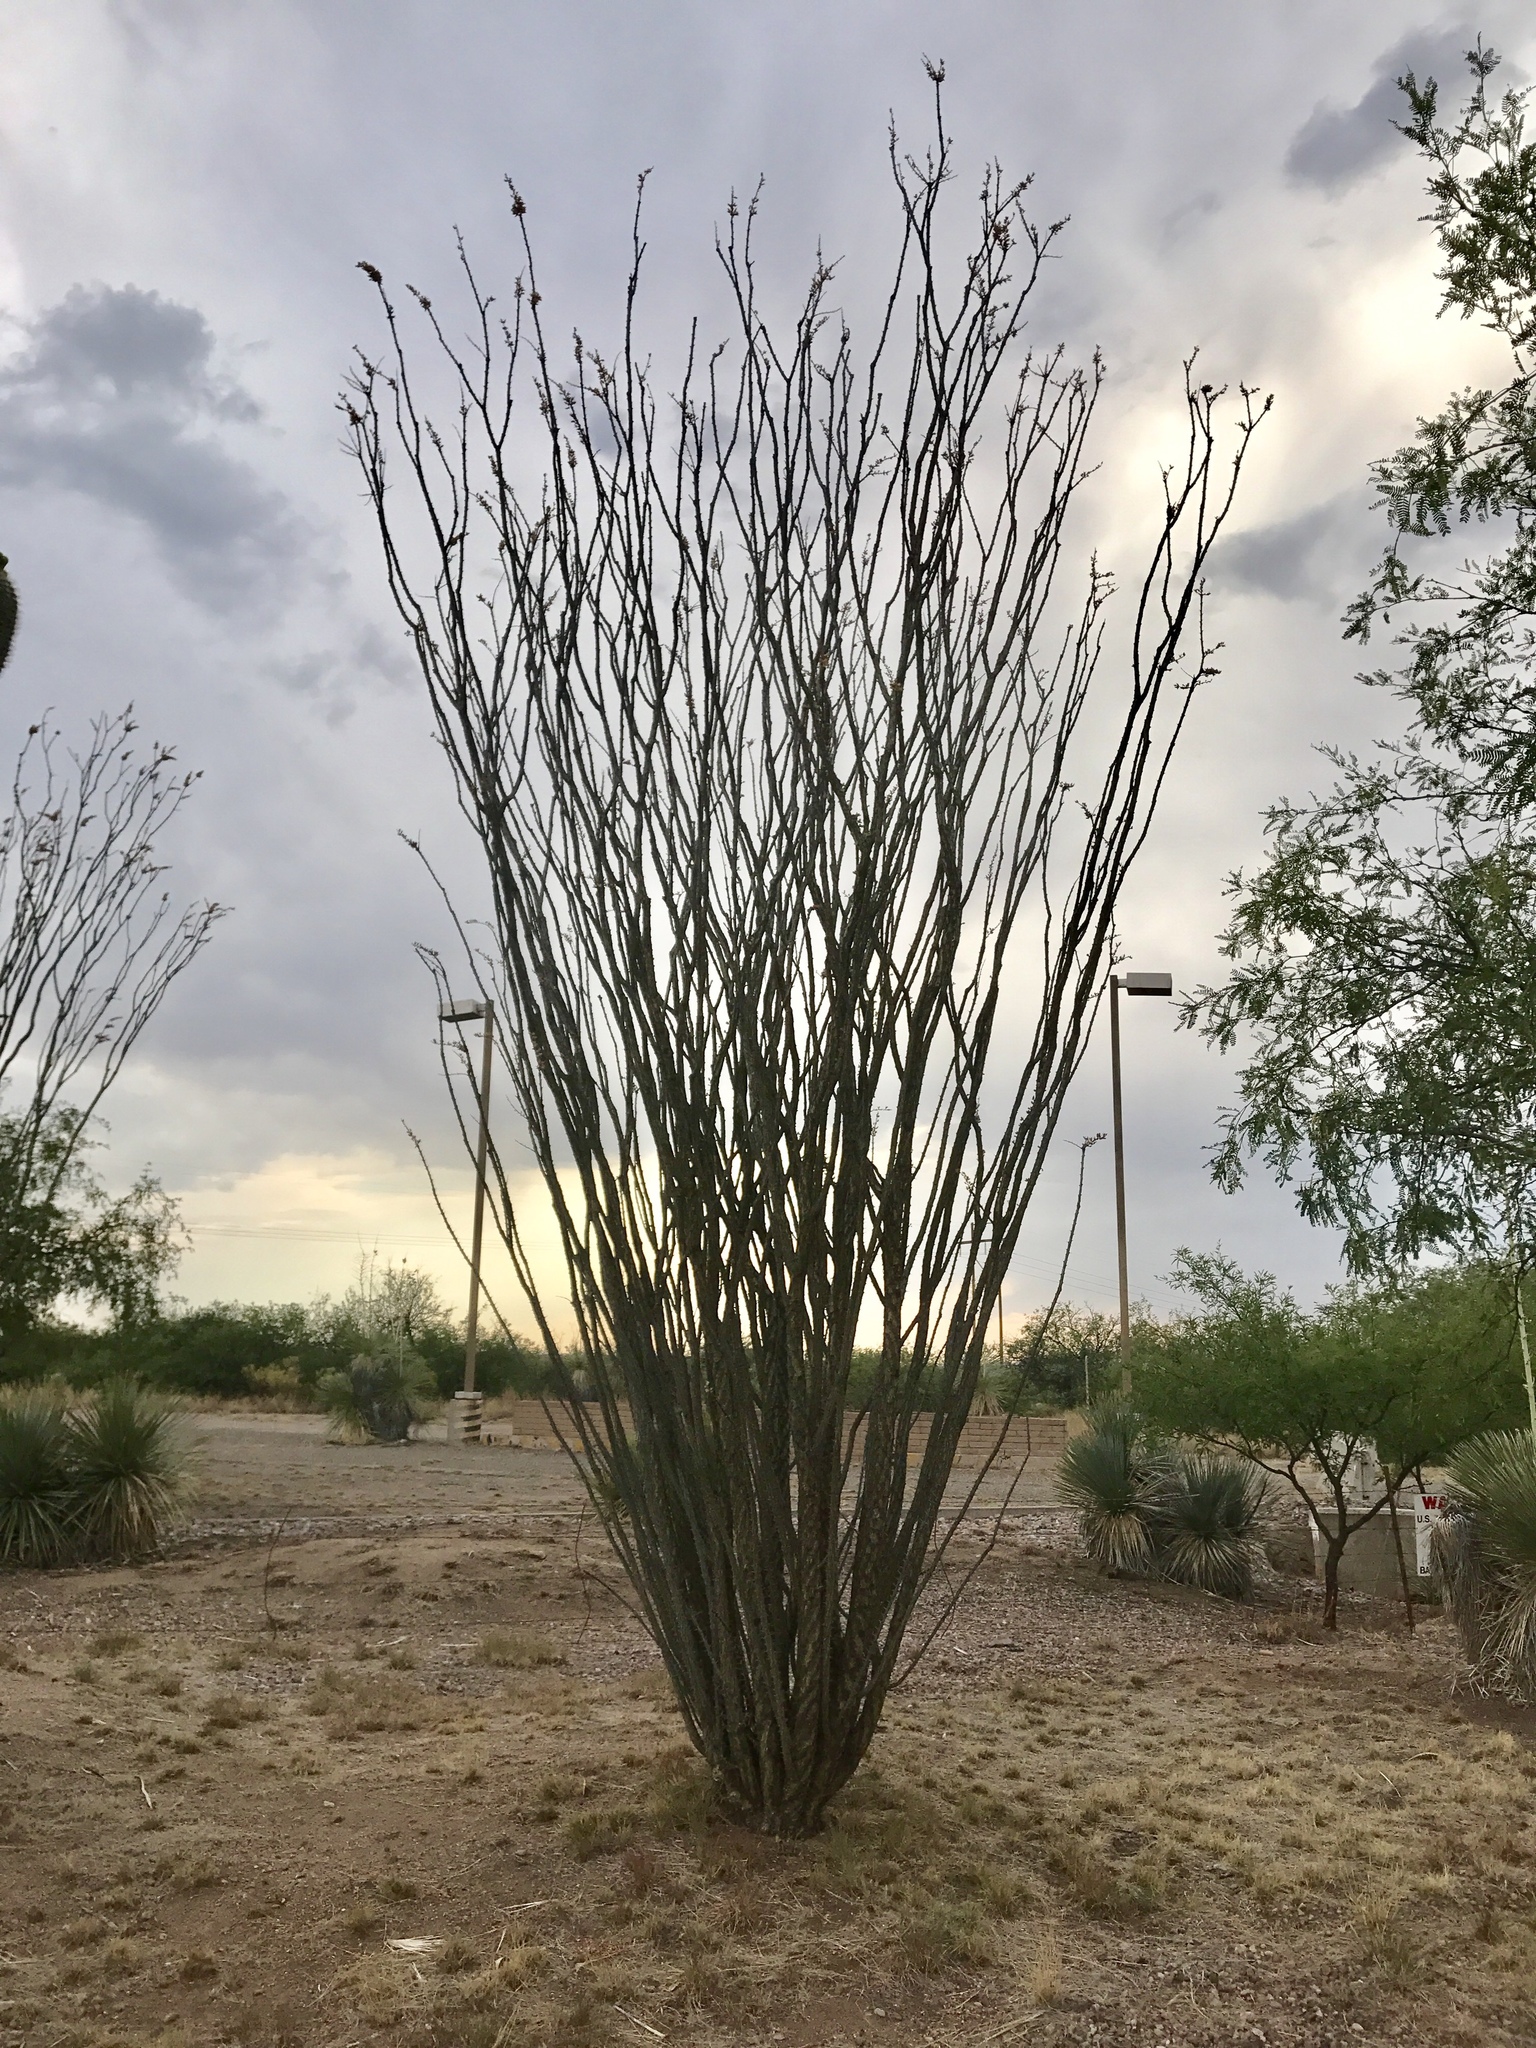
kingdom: Plantae
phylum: Tracheophyta
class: Magnoliopsida
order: Ericales
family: Fouquieriaceae
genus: Fouquieria
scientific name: Fouquieria splendens
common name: Vine-cactus
